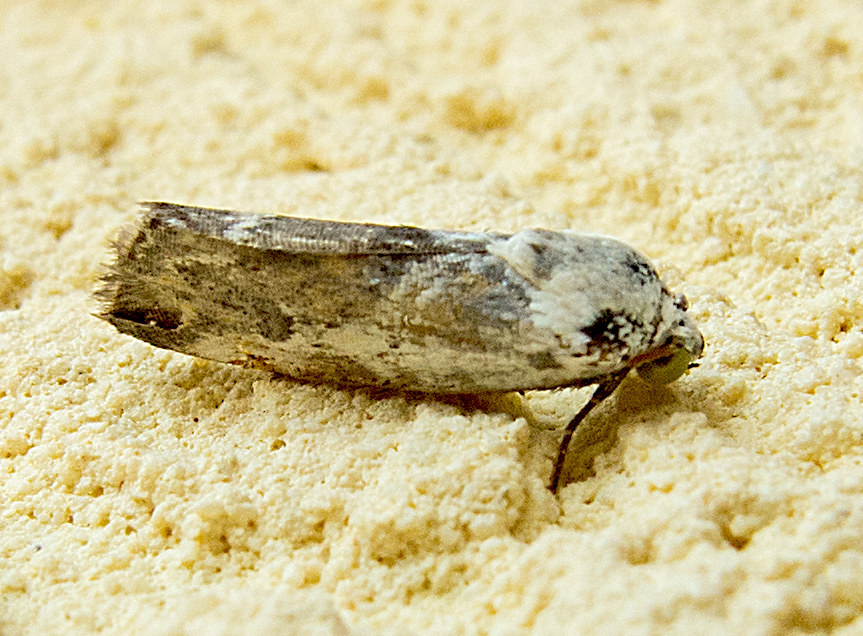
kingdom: Animalia
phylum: Arthropoda
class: Insecta
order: Lepidoptera
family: Noctuidae
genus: Acontia
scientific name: Acontia candefacta
